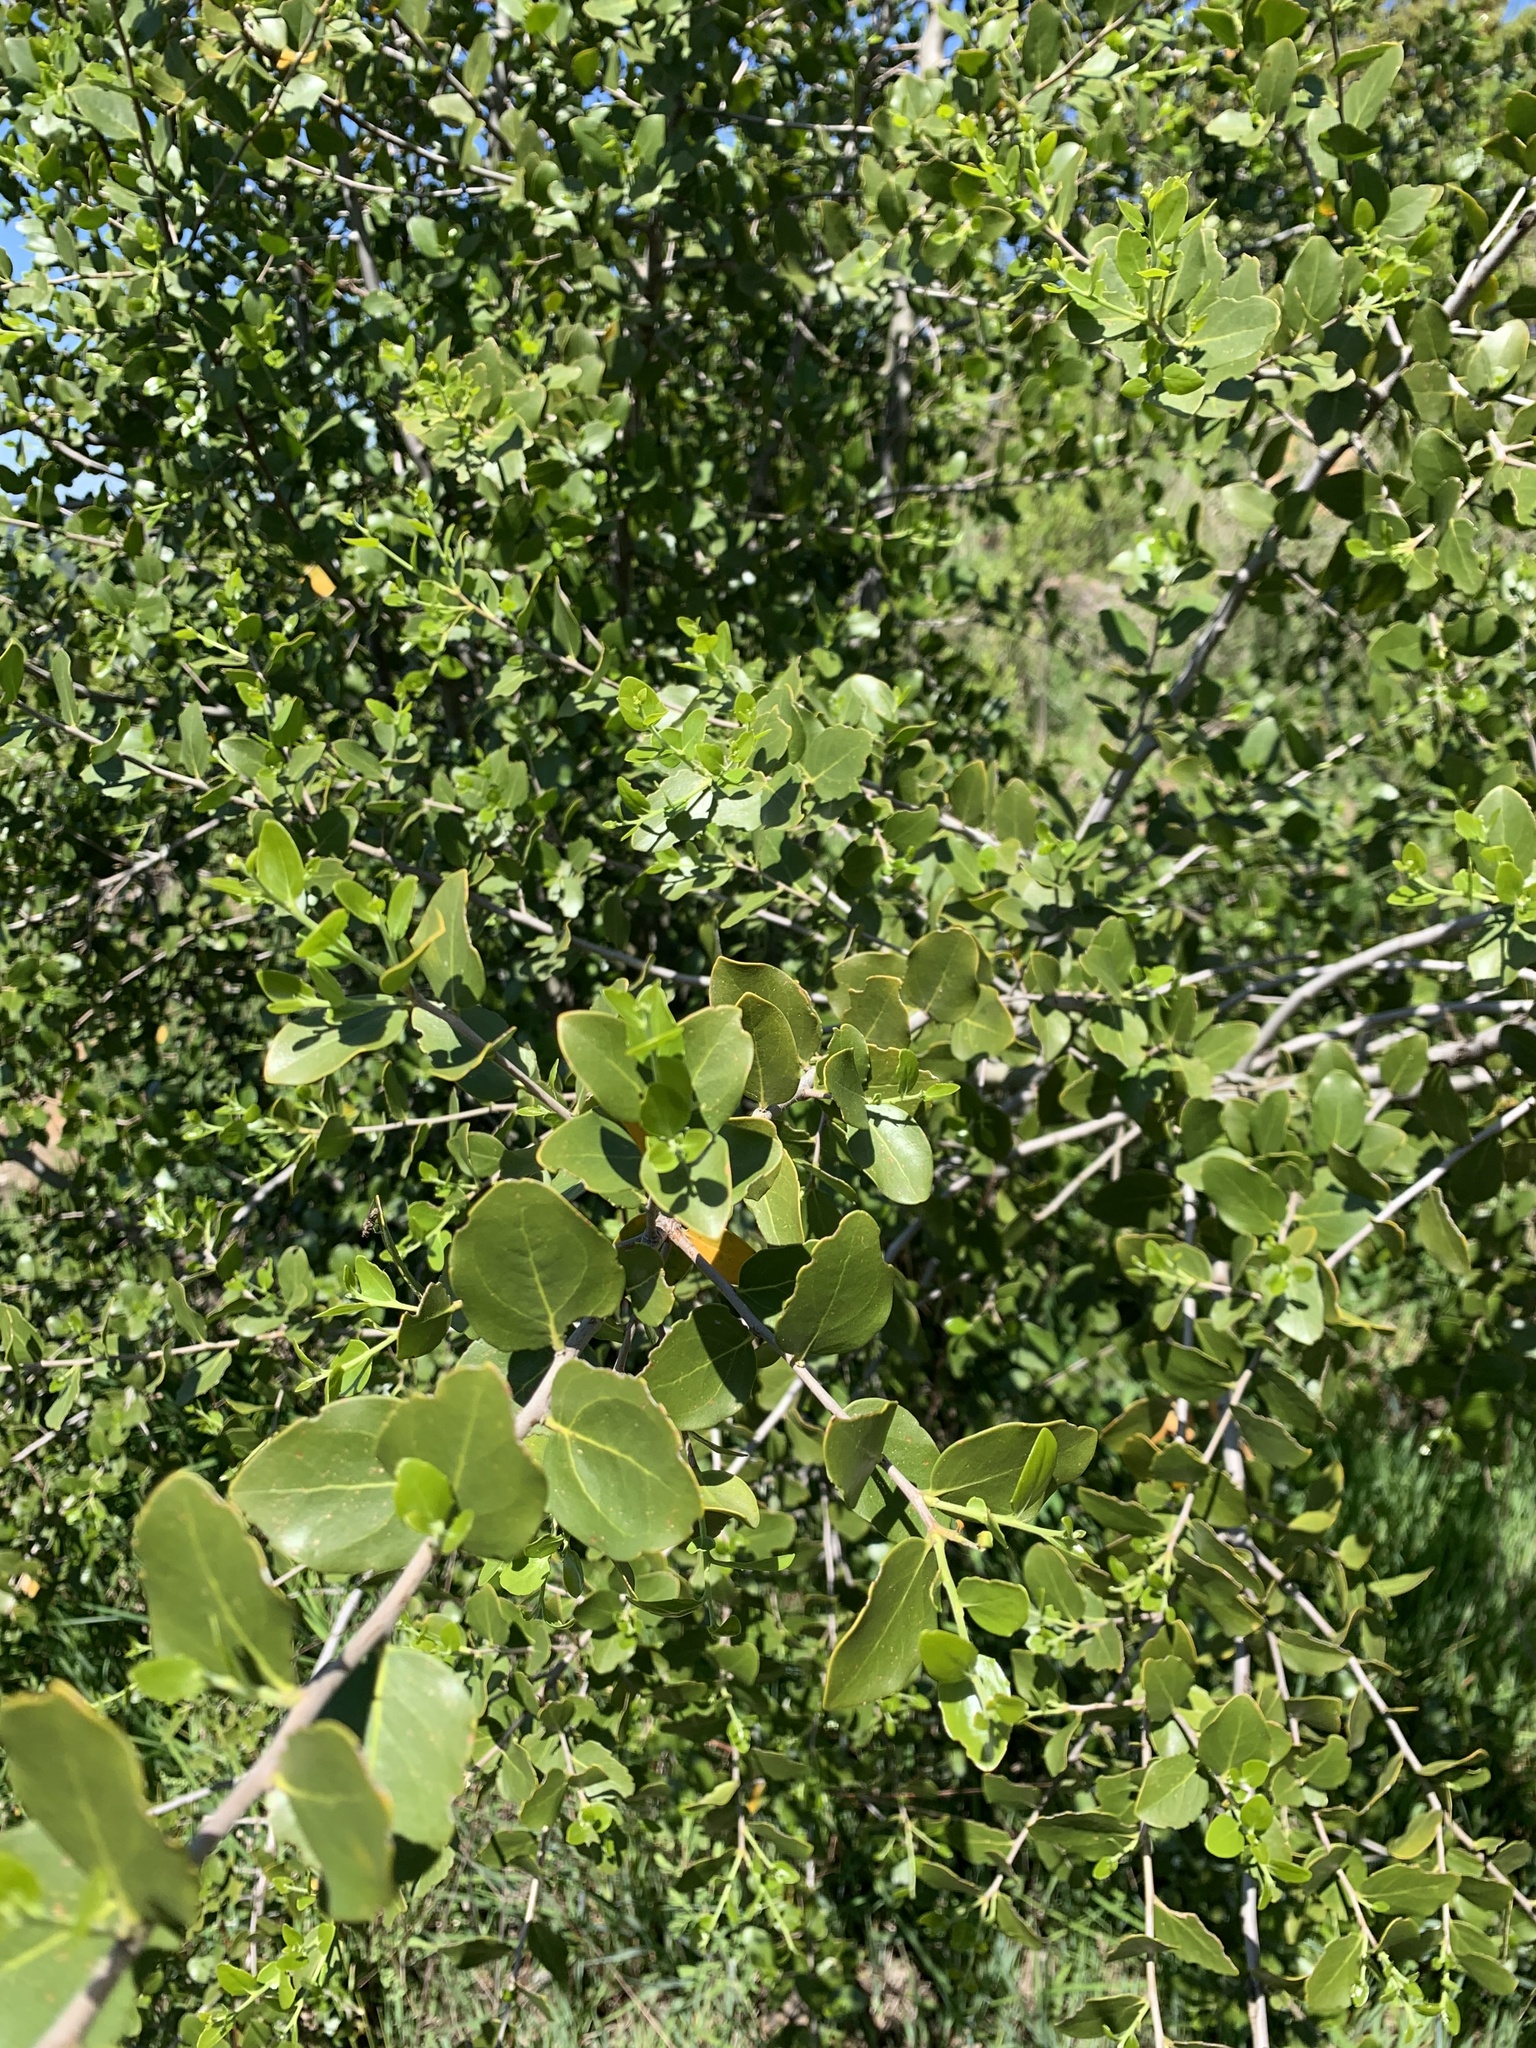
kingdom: Plantae
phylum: Tracheophyta
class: Magnoliopsida
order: Fabales
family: Quillajaceae
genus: Quillaja
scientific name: Quillaja saponaria
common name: Murillo's-bark
